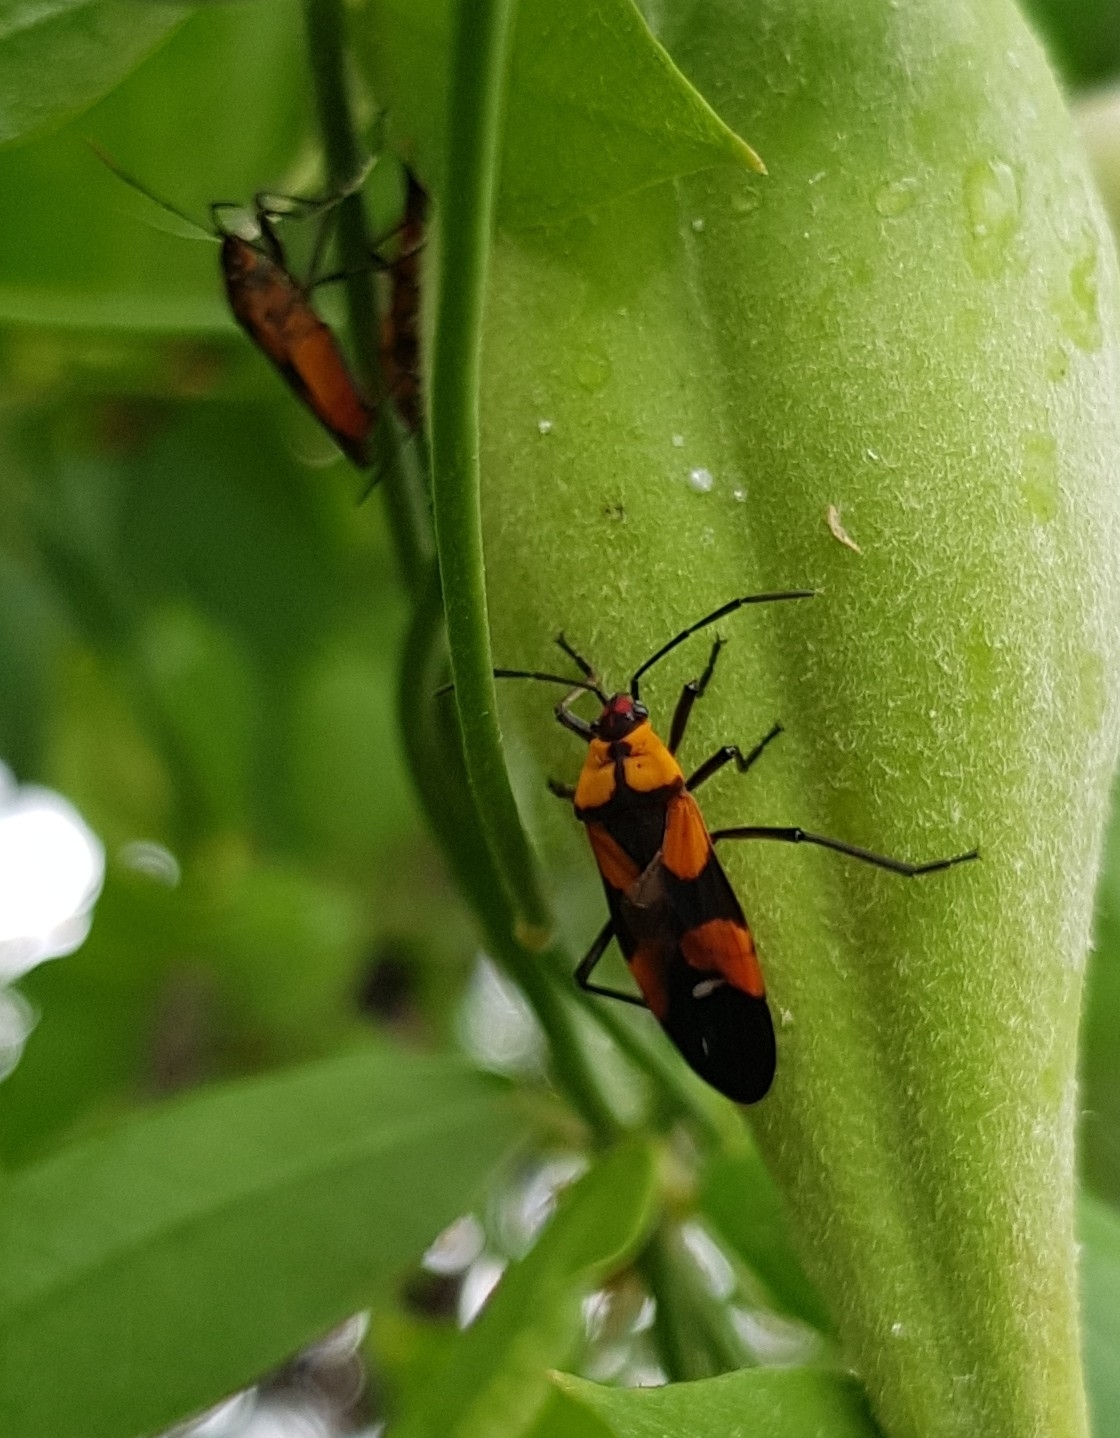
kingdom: Animalia
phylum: Arthropoda
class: Insecta
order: Hemiptera
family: Lygaeidae
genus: Oncopeltus
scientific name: Oncopeltus spectabilis
